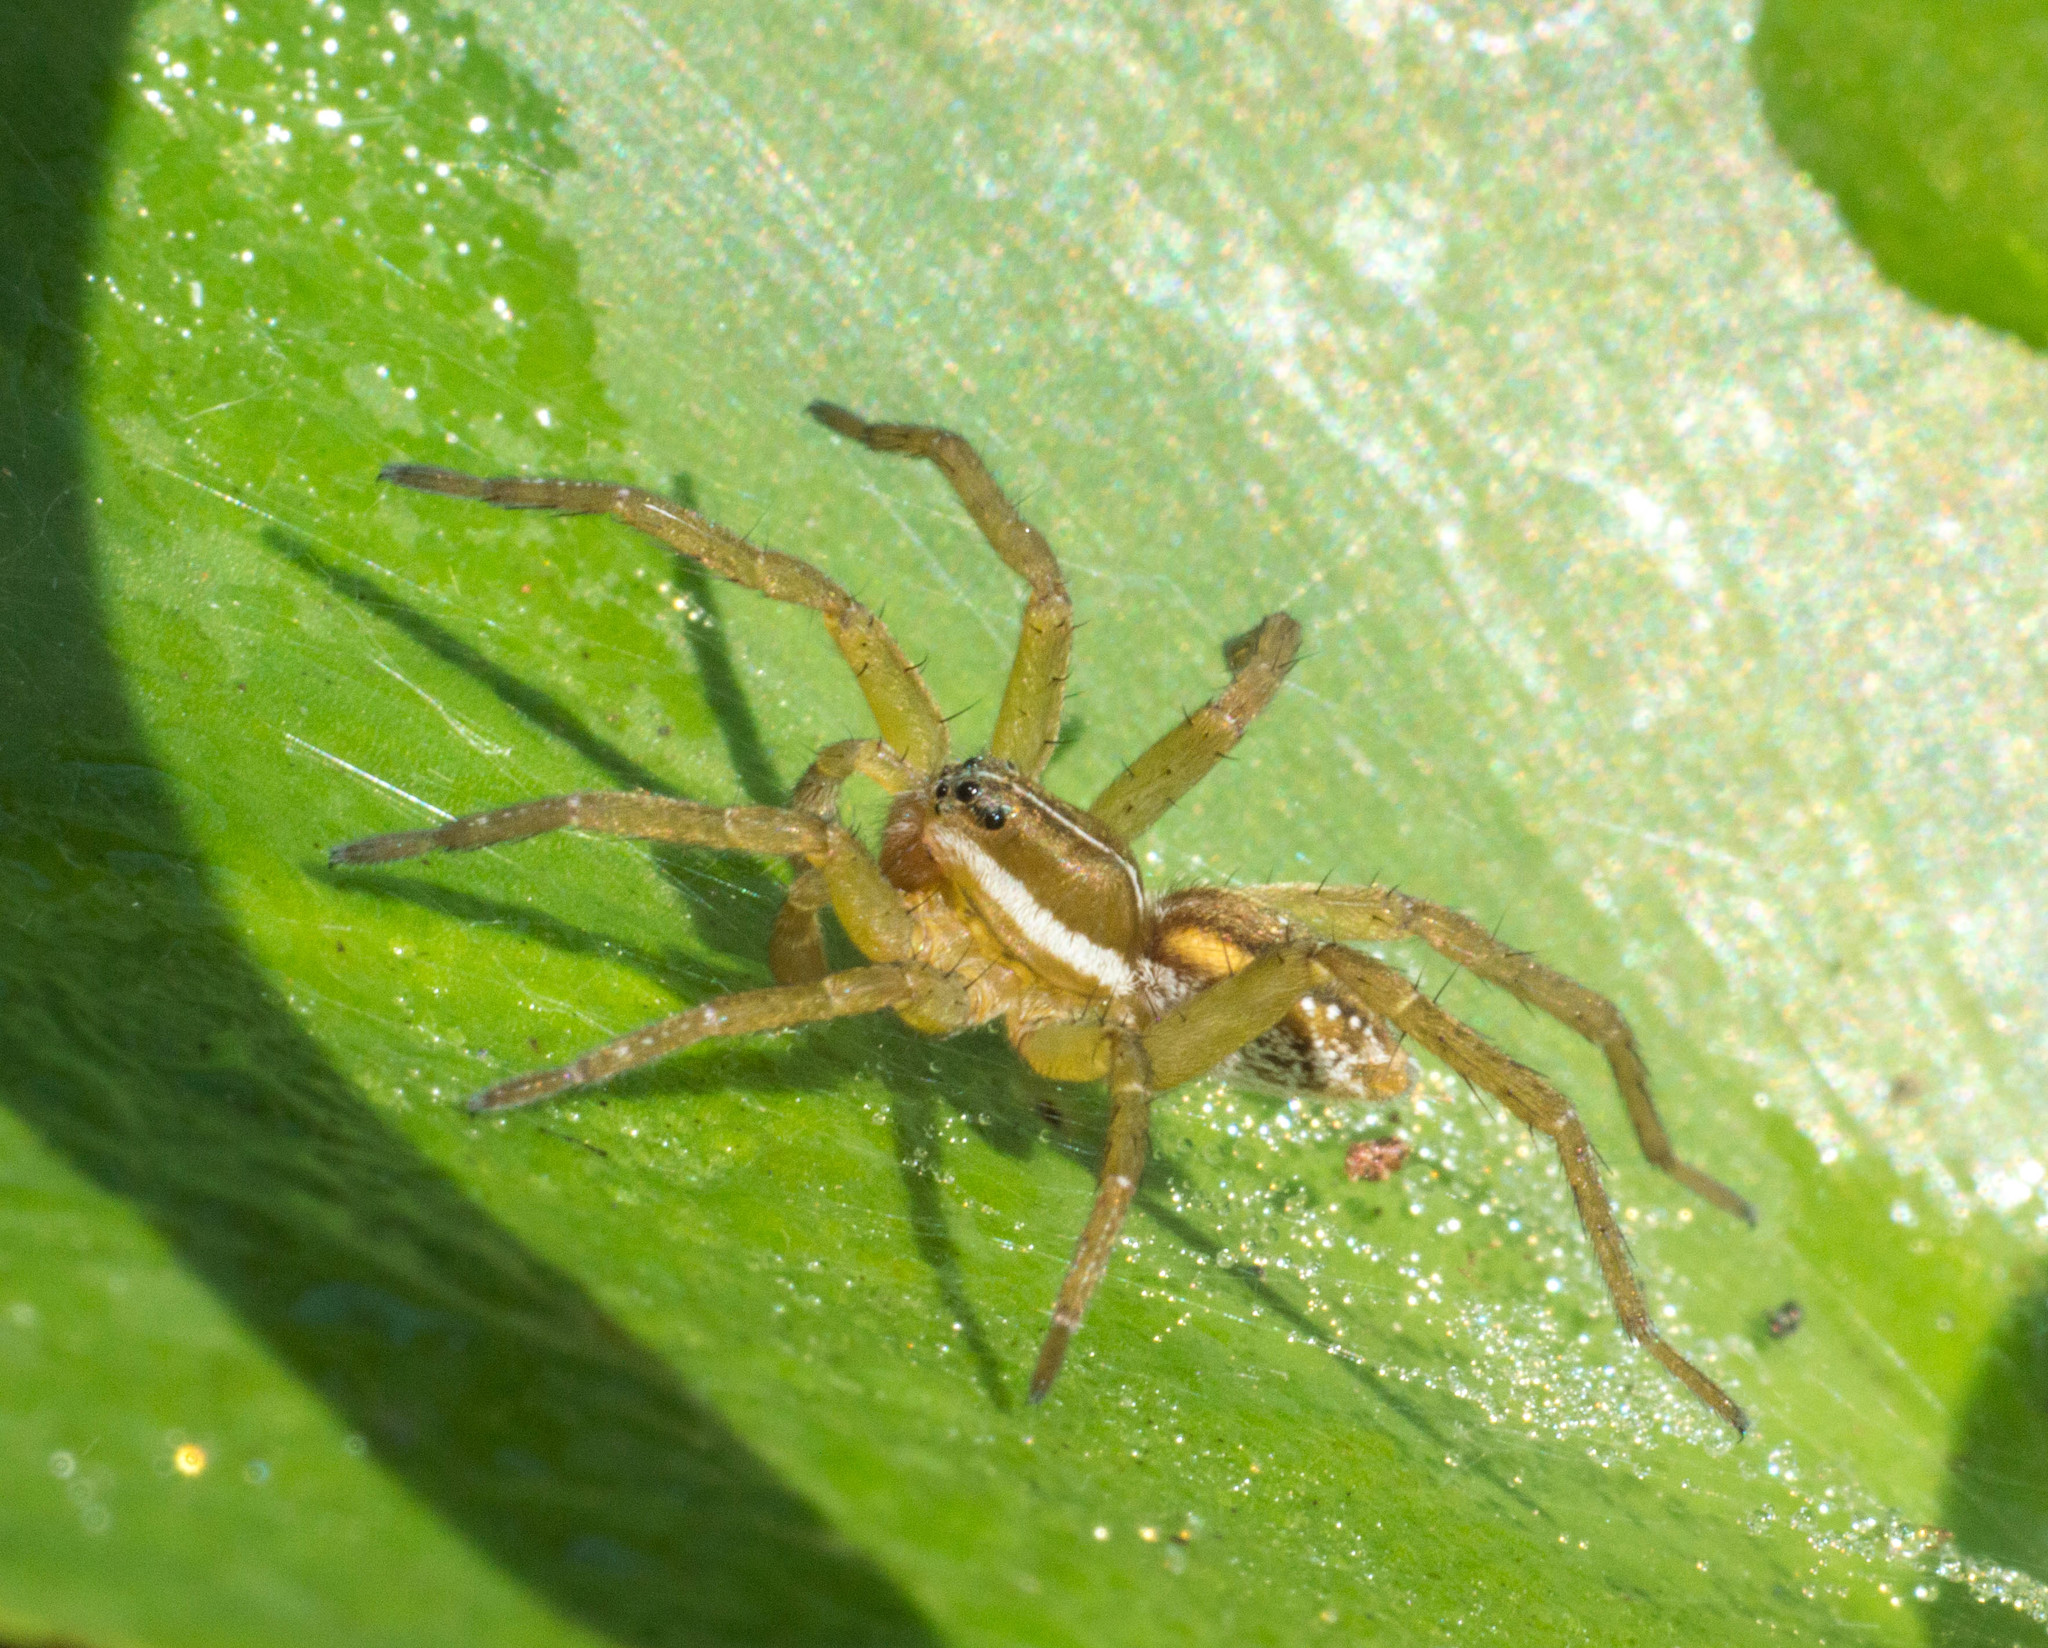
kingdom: Animalia
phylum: Arthropoda
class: Arachnida
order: Araneae
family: Lycosidae
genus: Diapontia
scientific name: Diapontia uruguayensis
